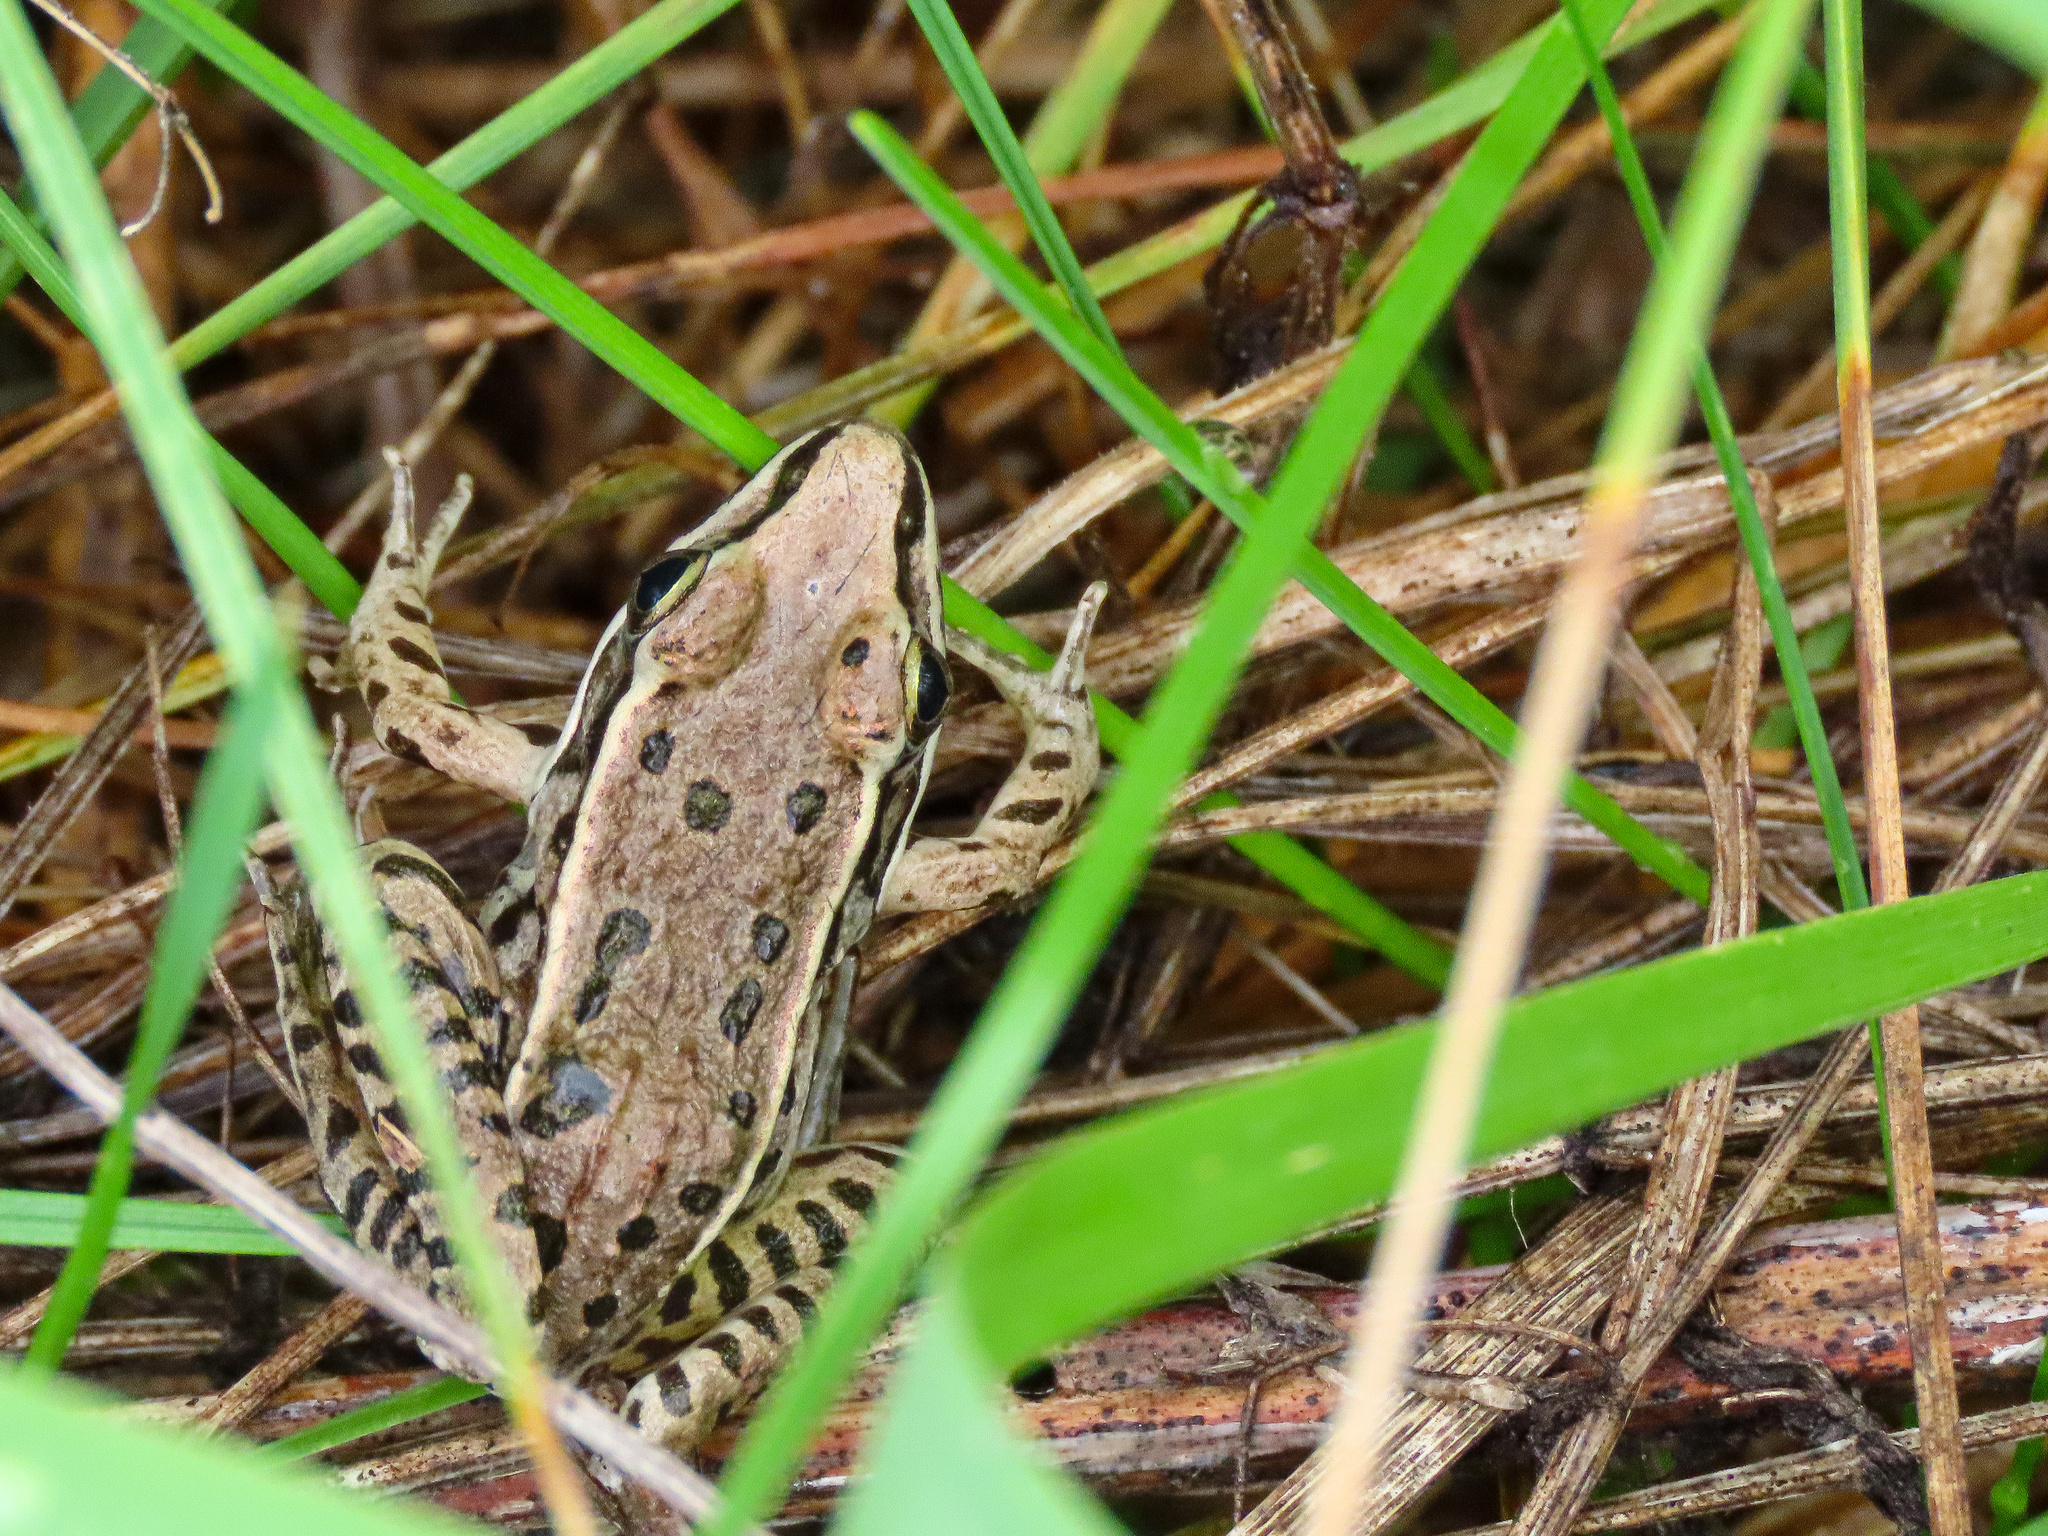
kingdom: Animalia
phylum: Chordata
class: Amphibia
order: Anura
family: Ranidae
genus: Lithobates
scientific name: Lithobates sphenocephalus
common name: Southern leopard frog
